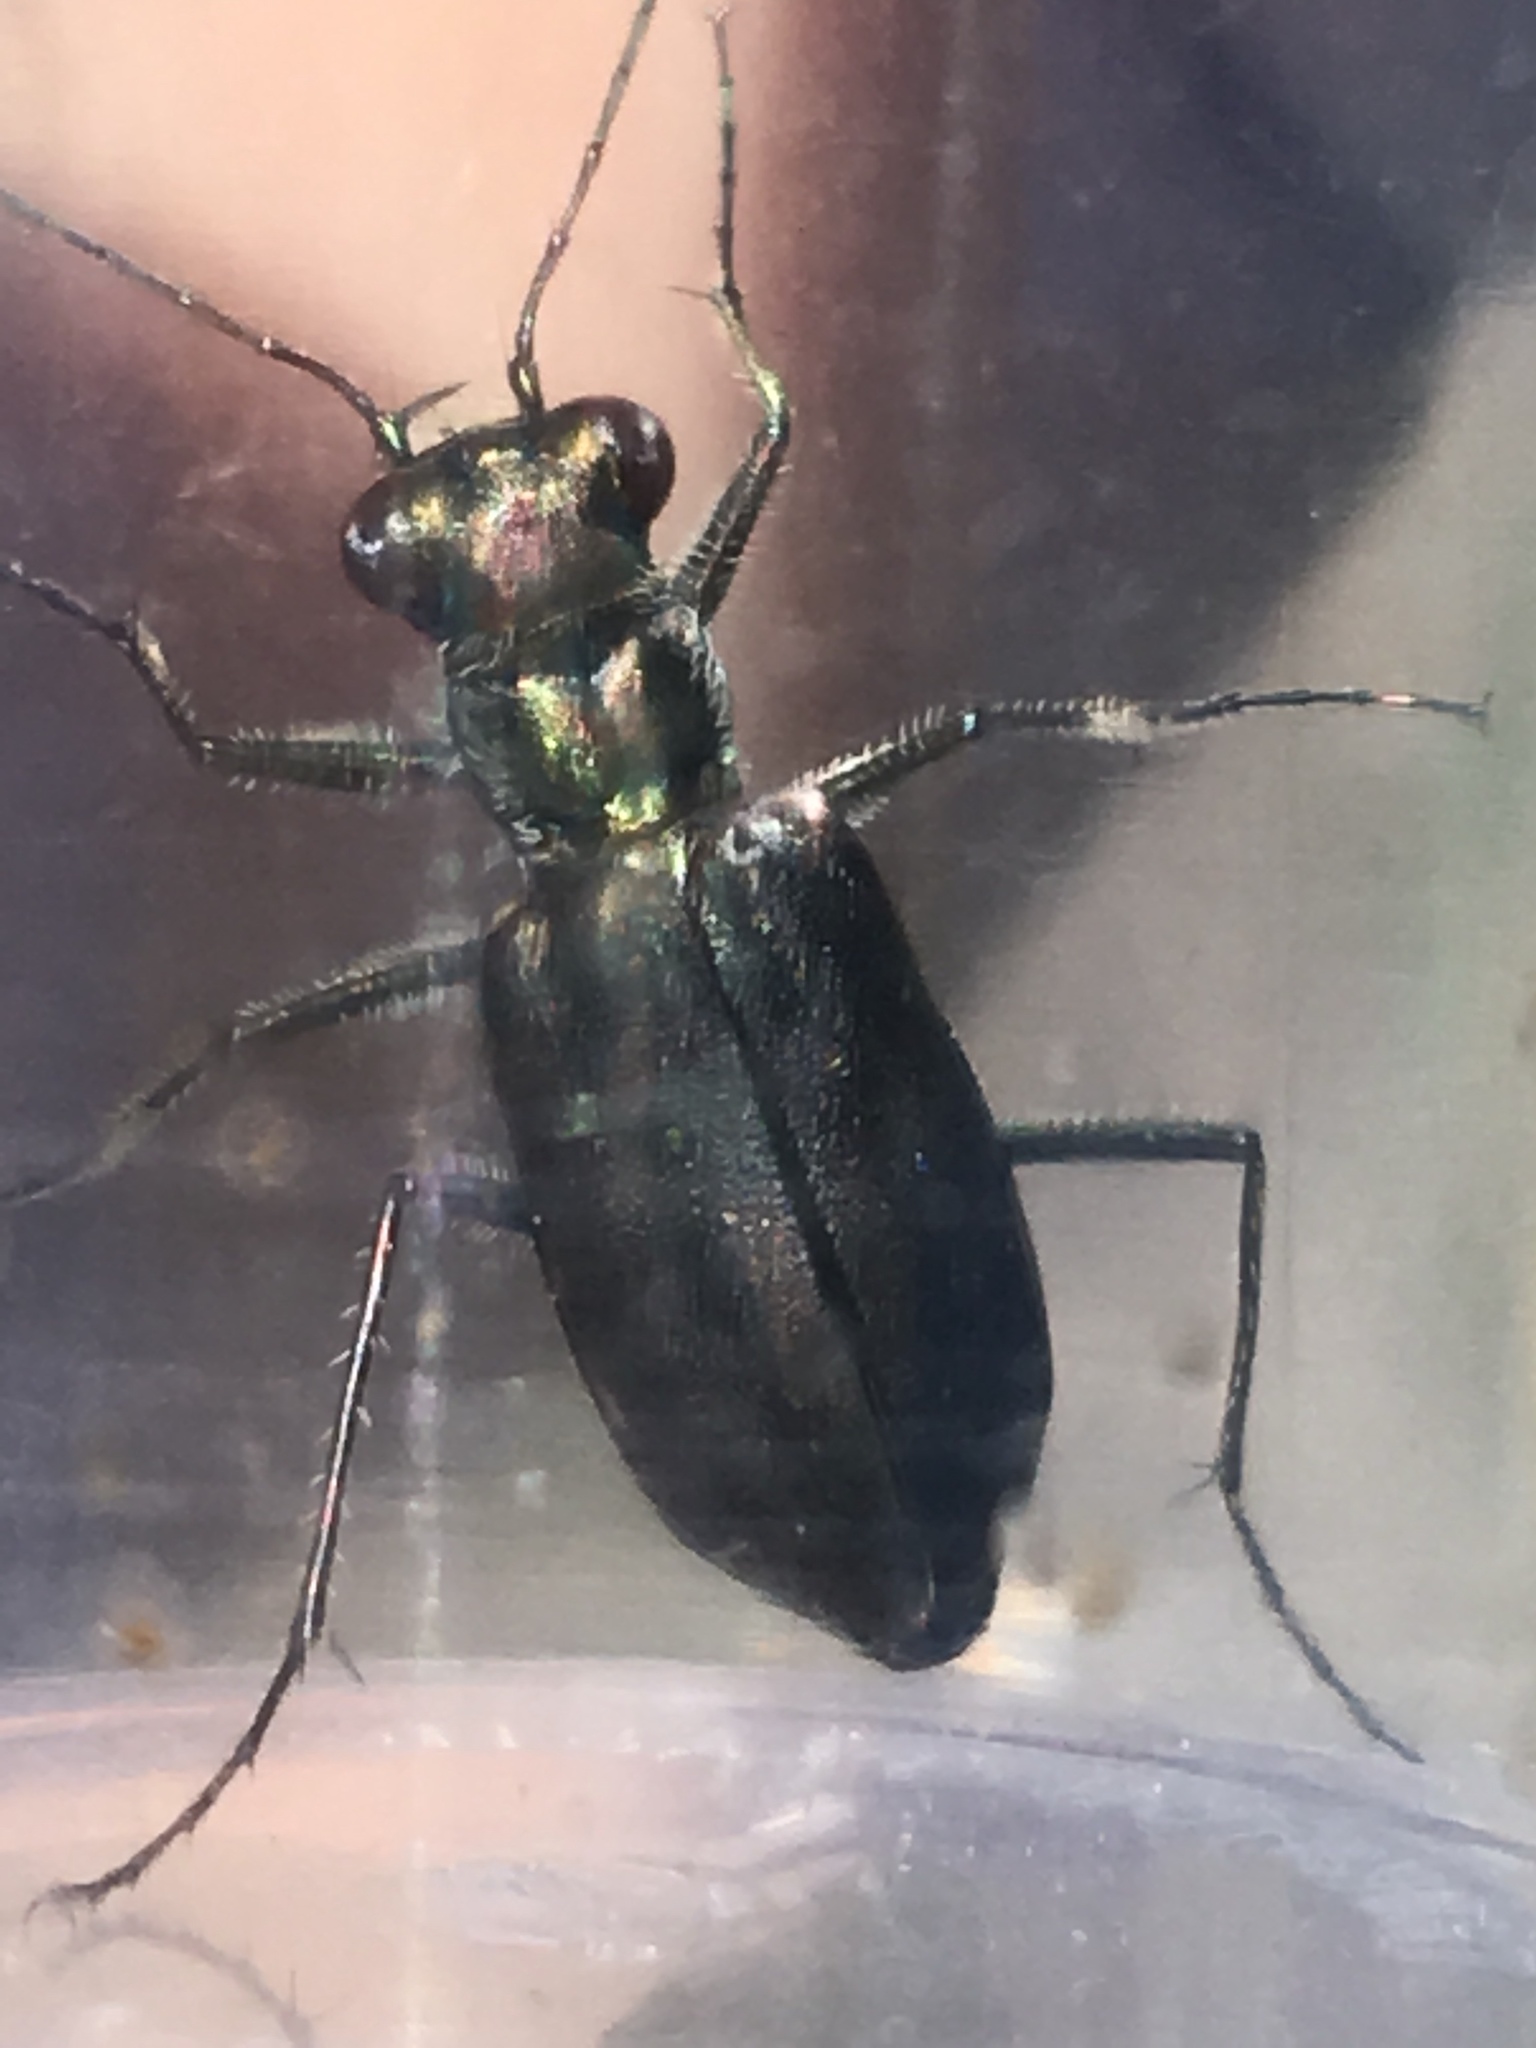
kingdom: Animalia
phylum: Arthropoda
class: Insecta
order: Coleoptera
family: Carabidae
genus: Cicindela
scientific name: Cicindela punctulata
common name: Punctured tiger beetle
